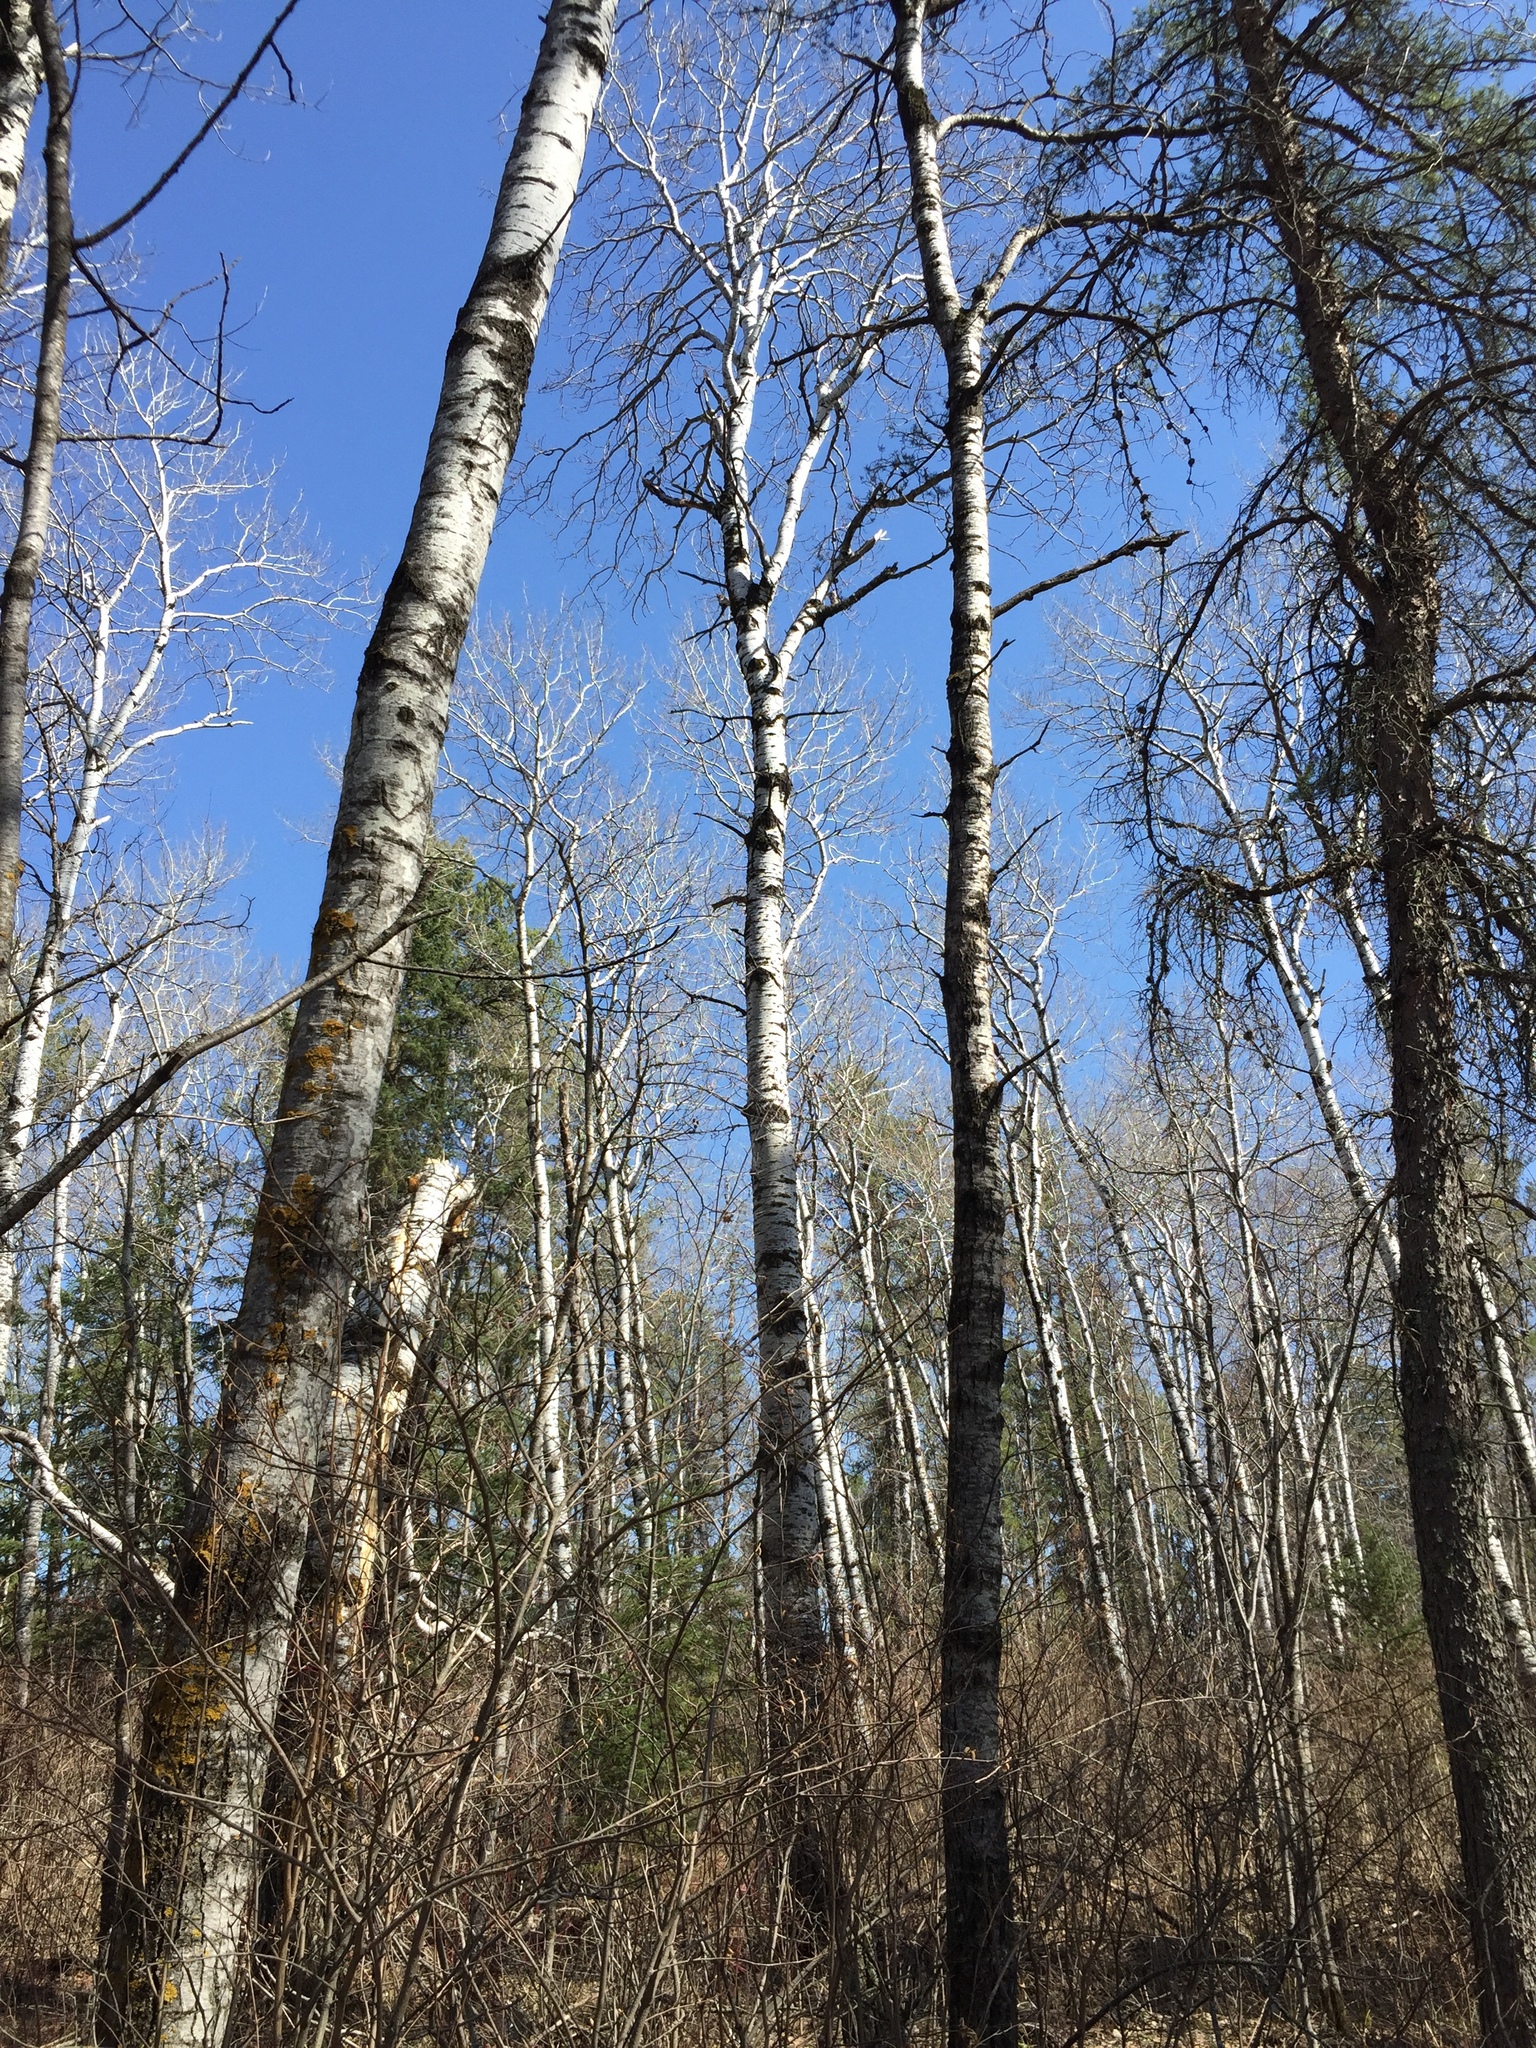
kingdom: Plantae
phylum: Tracheophyta
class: Magnoliopsida
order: Malpighiales
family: Salicaceae
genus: Populus
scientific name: Populus tremuloides
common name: Quaking aspen
